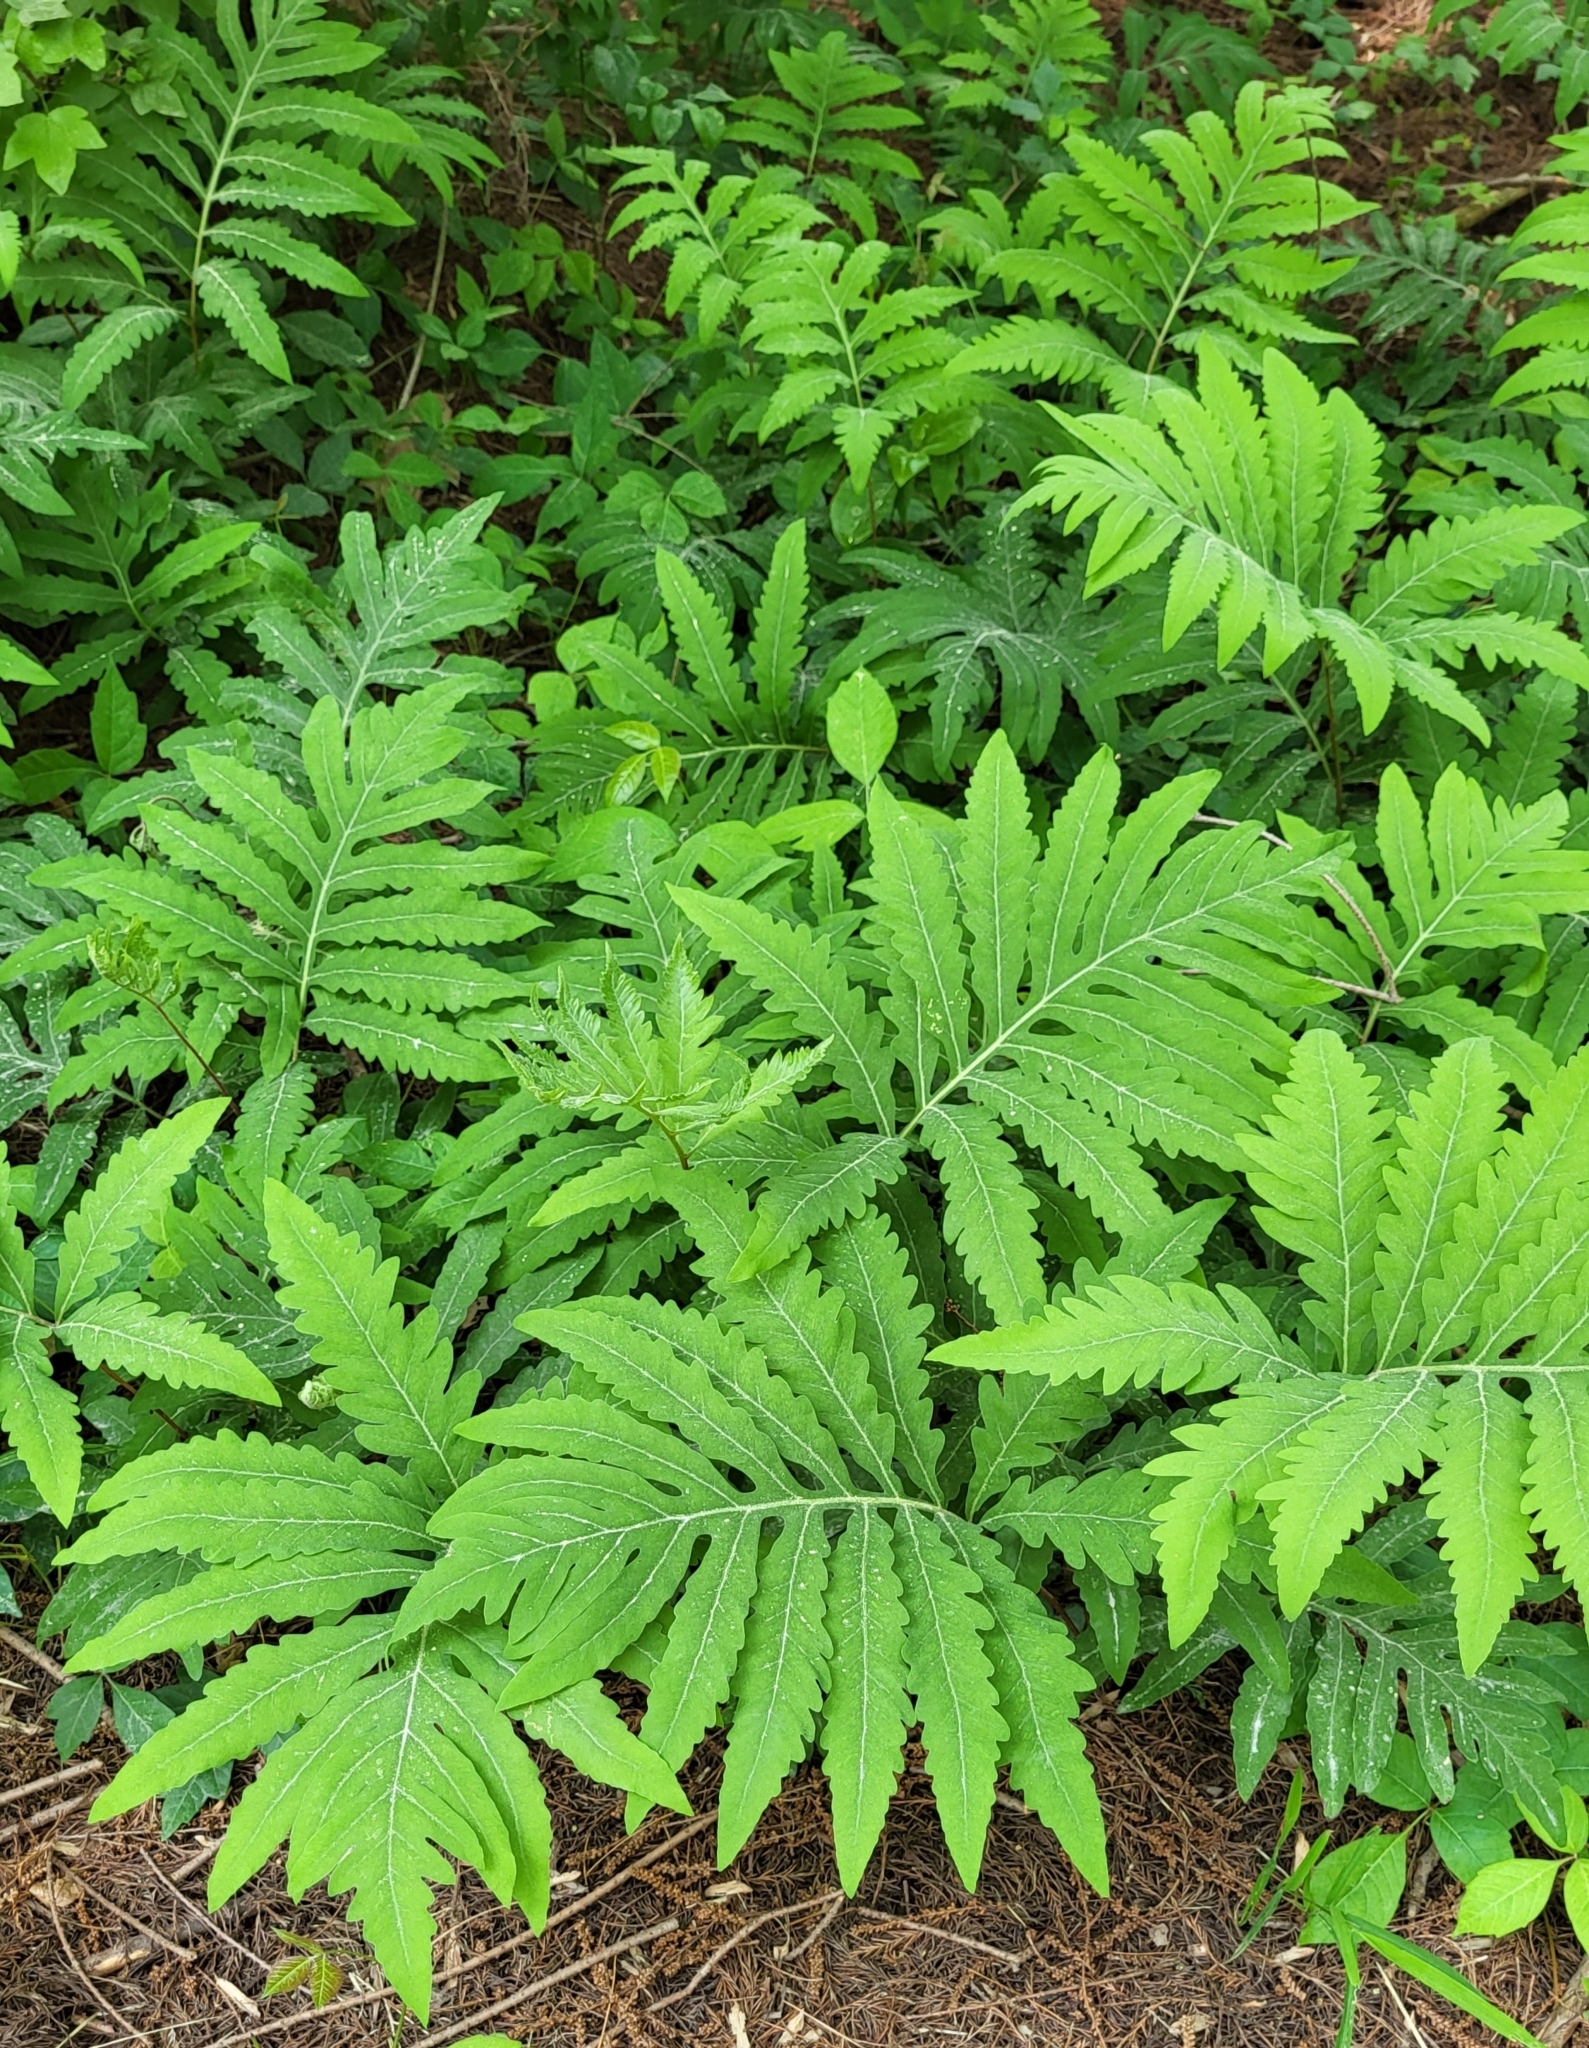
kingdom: Plantae
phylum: Tracheophyta
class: Polypodiopsida
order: Polypodiales
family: Onocleaceae
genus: Onoclea
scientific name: Onoclea sensibilis
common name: Sensitive fern
